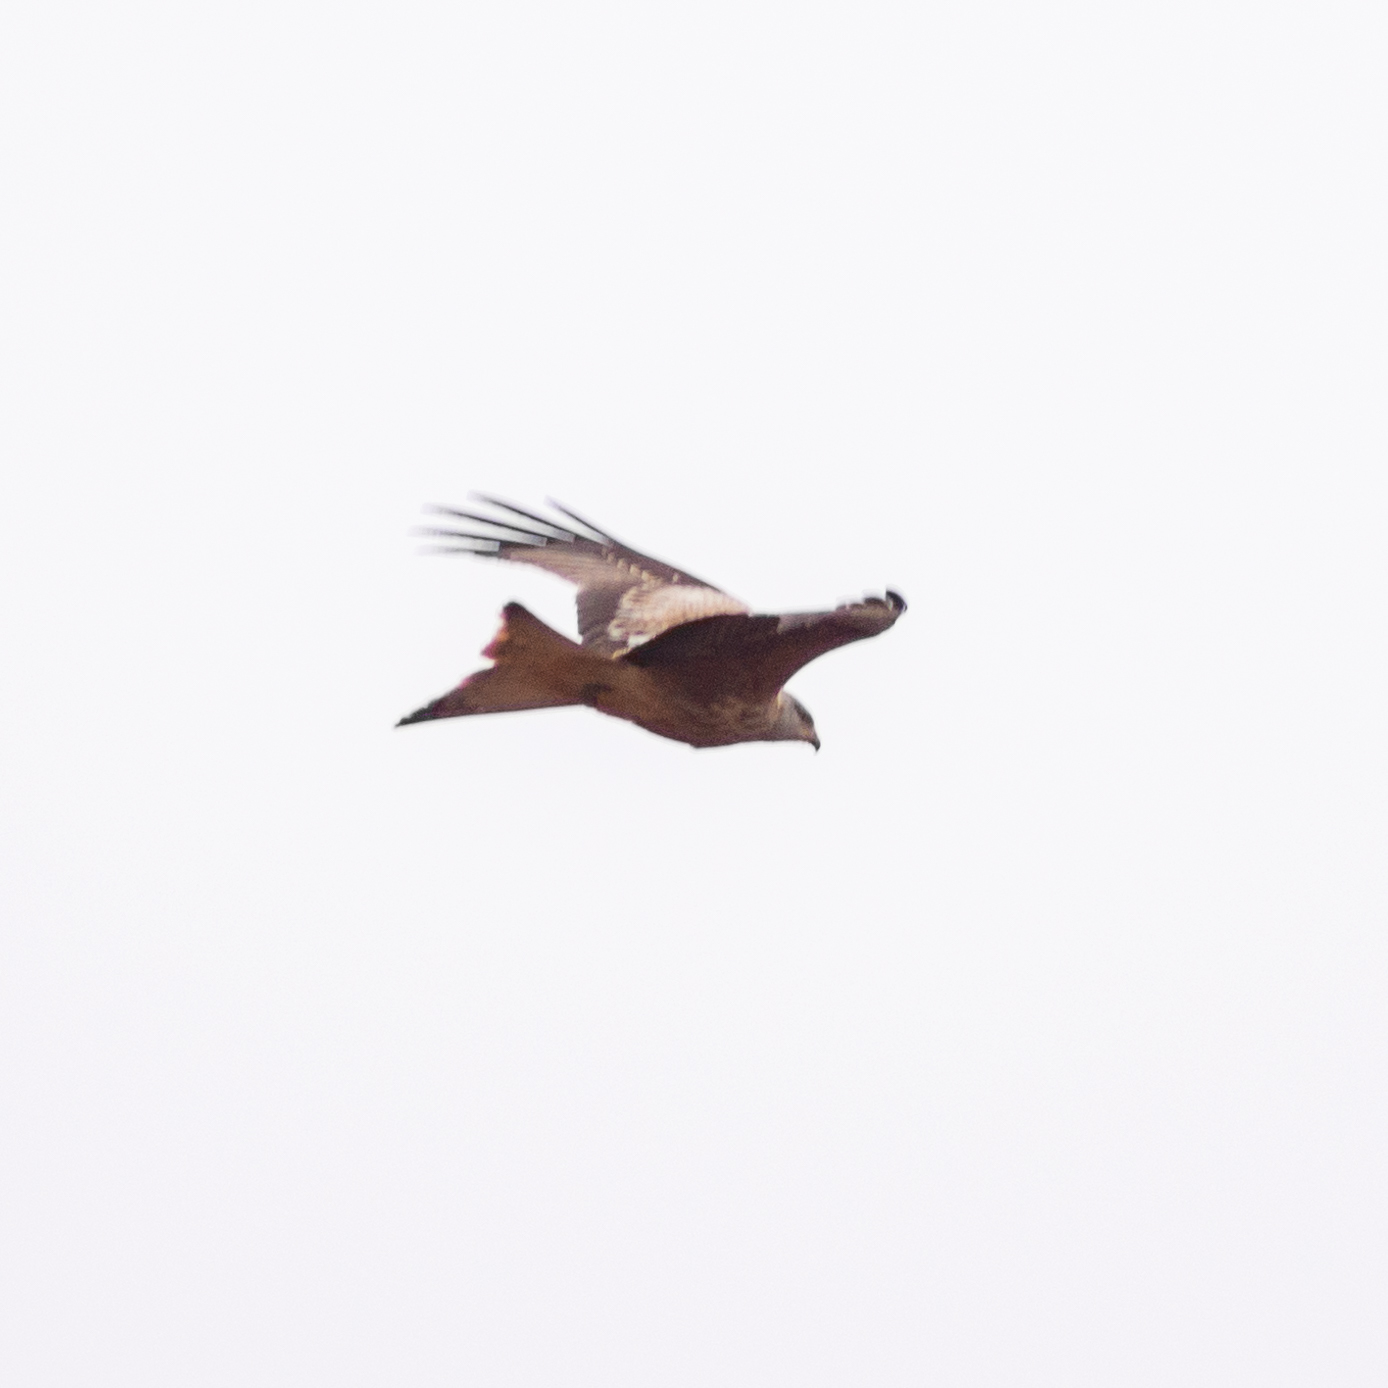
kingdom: Animalia
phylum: Chordata
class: Aves
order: Accipitriformes
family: Accipitridae
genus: Milvus
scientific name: Milvus milvus
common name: Red kite
